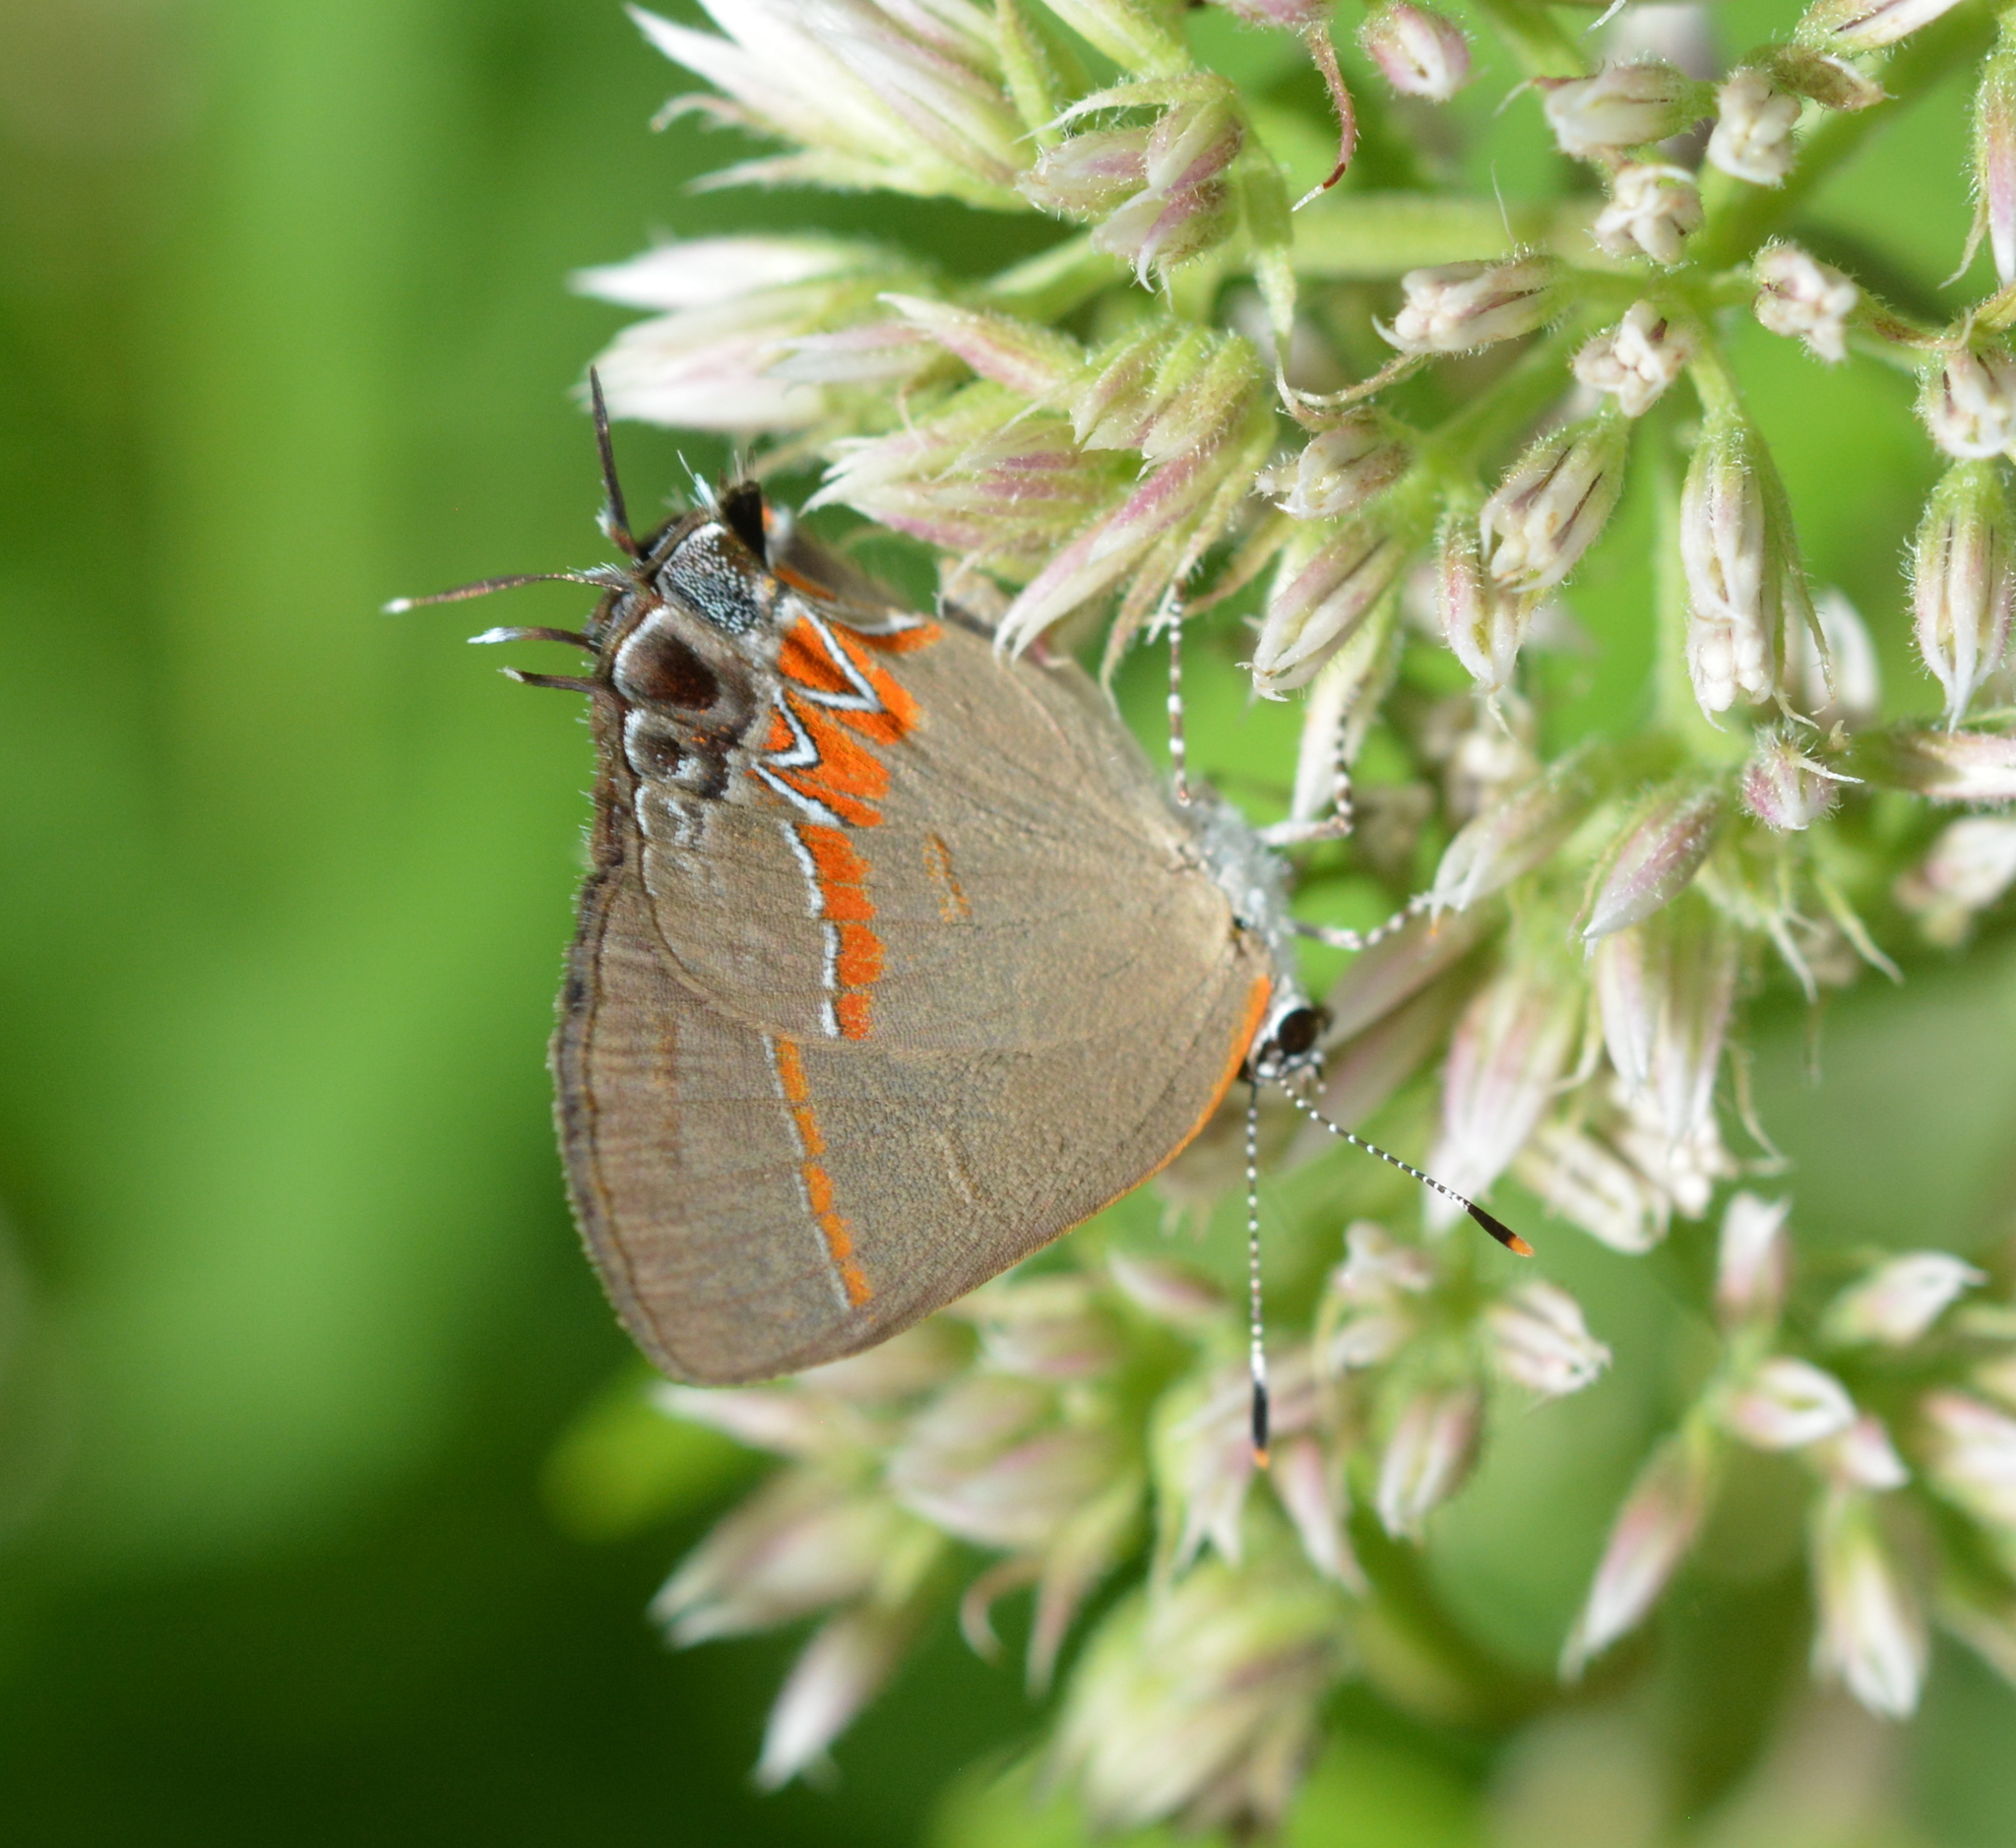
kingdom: Animalia
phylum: Arthropoda
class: Insecta
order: Lepidoptera
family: Lycaenidae
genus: Calycopis
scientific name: Calycopis cecrops
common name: Red-banded hairstreak
